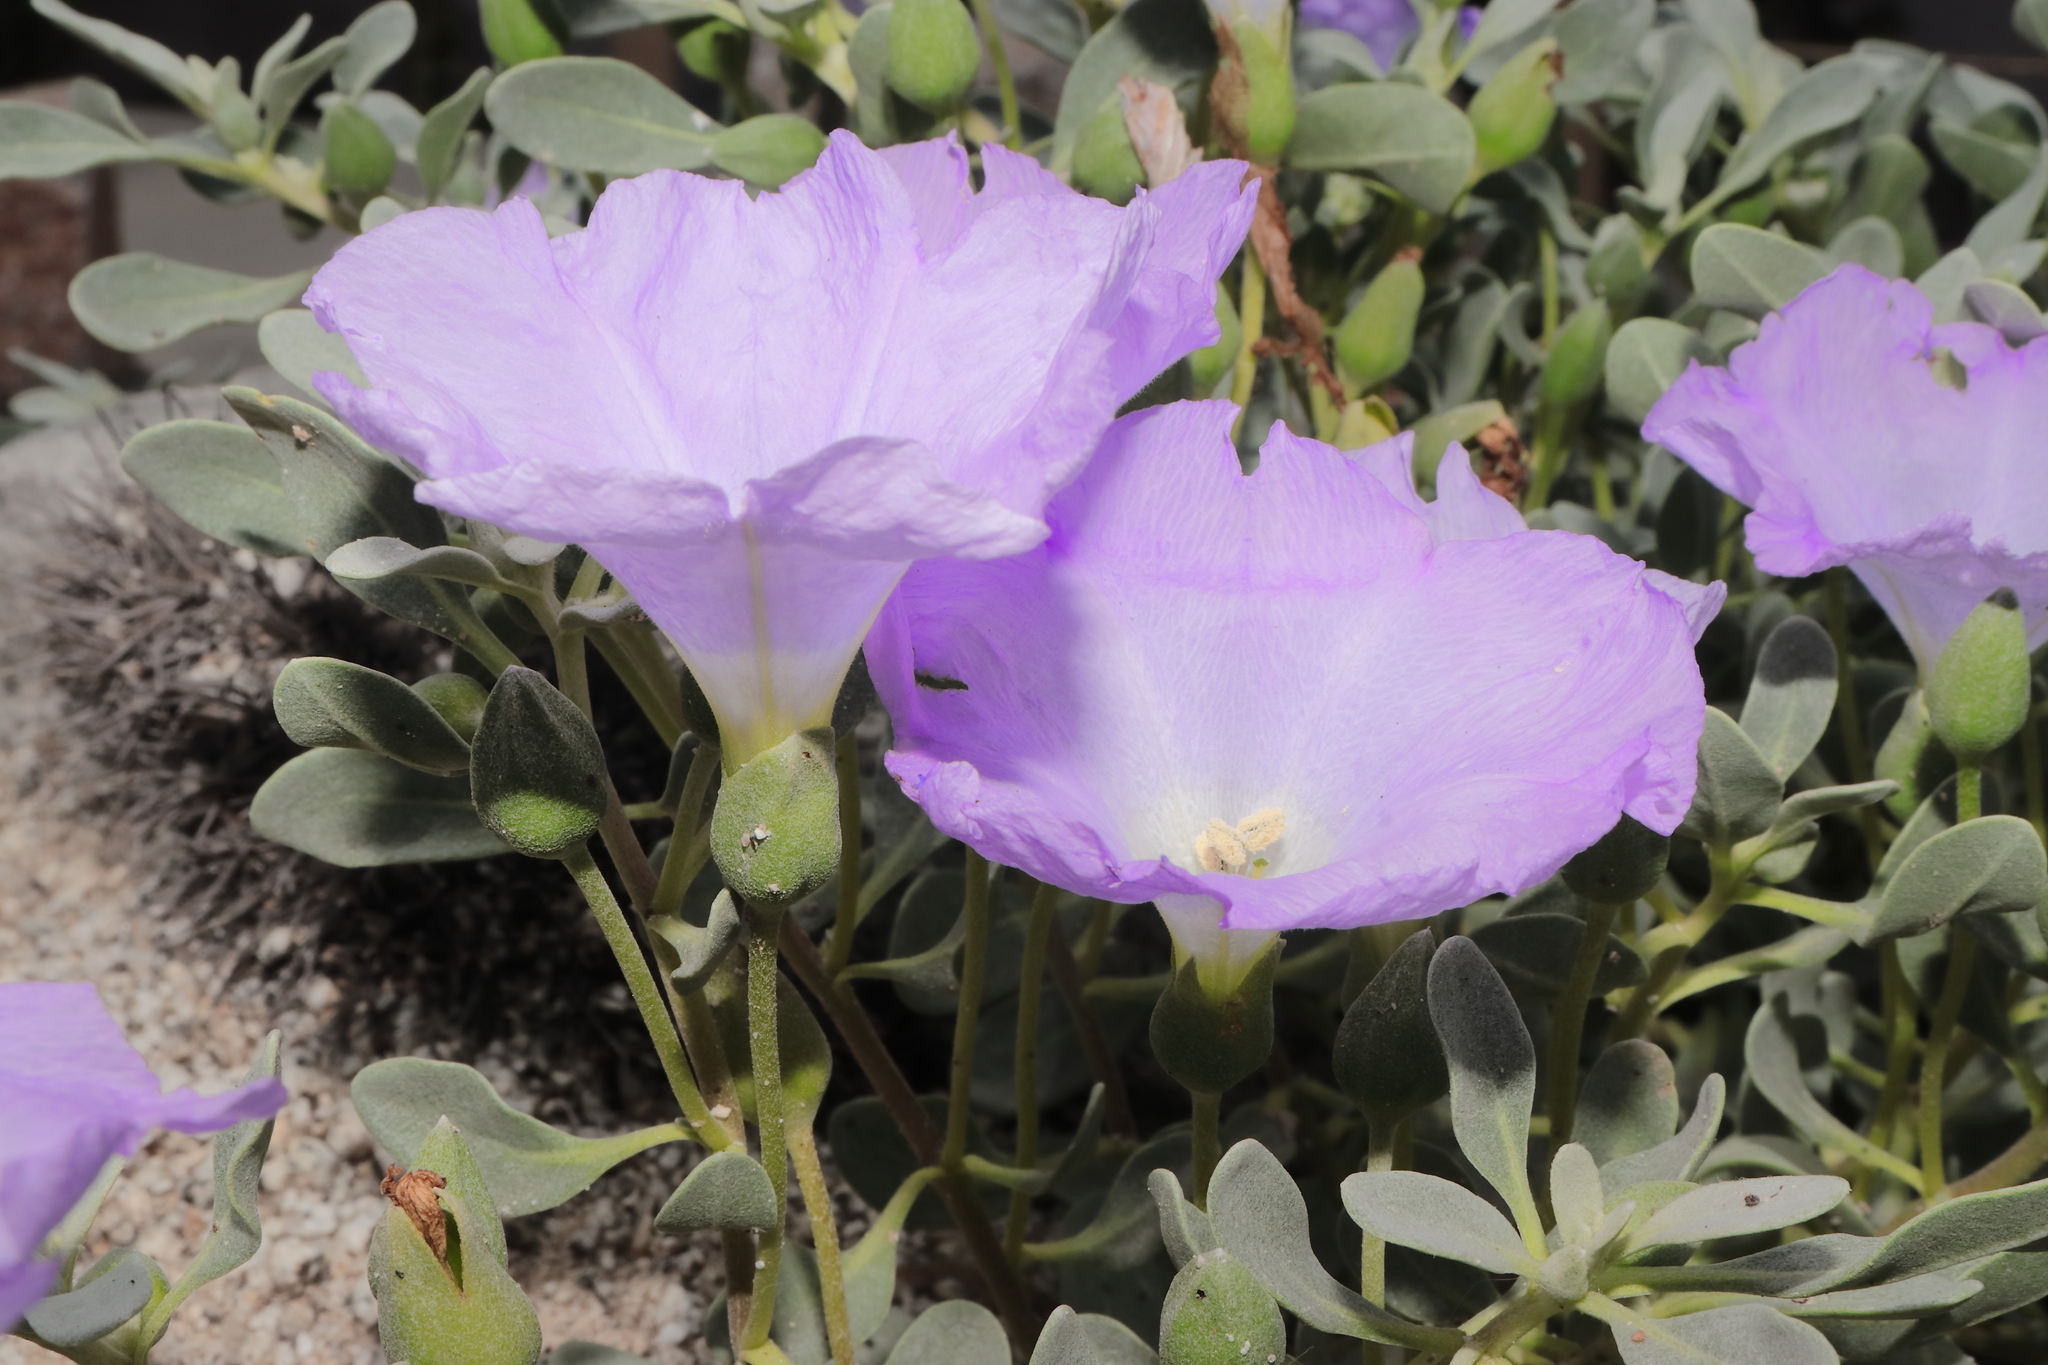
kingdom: Plantae
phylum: Tracheophyta
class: Magnoliopsida
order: Solanales
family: Solanaceae
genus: Nolana
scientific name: Nolana humifusa
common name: Trailing chilean-bellflower
